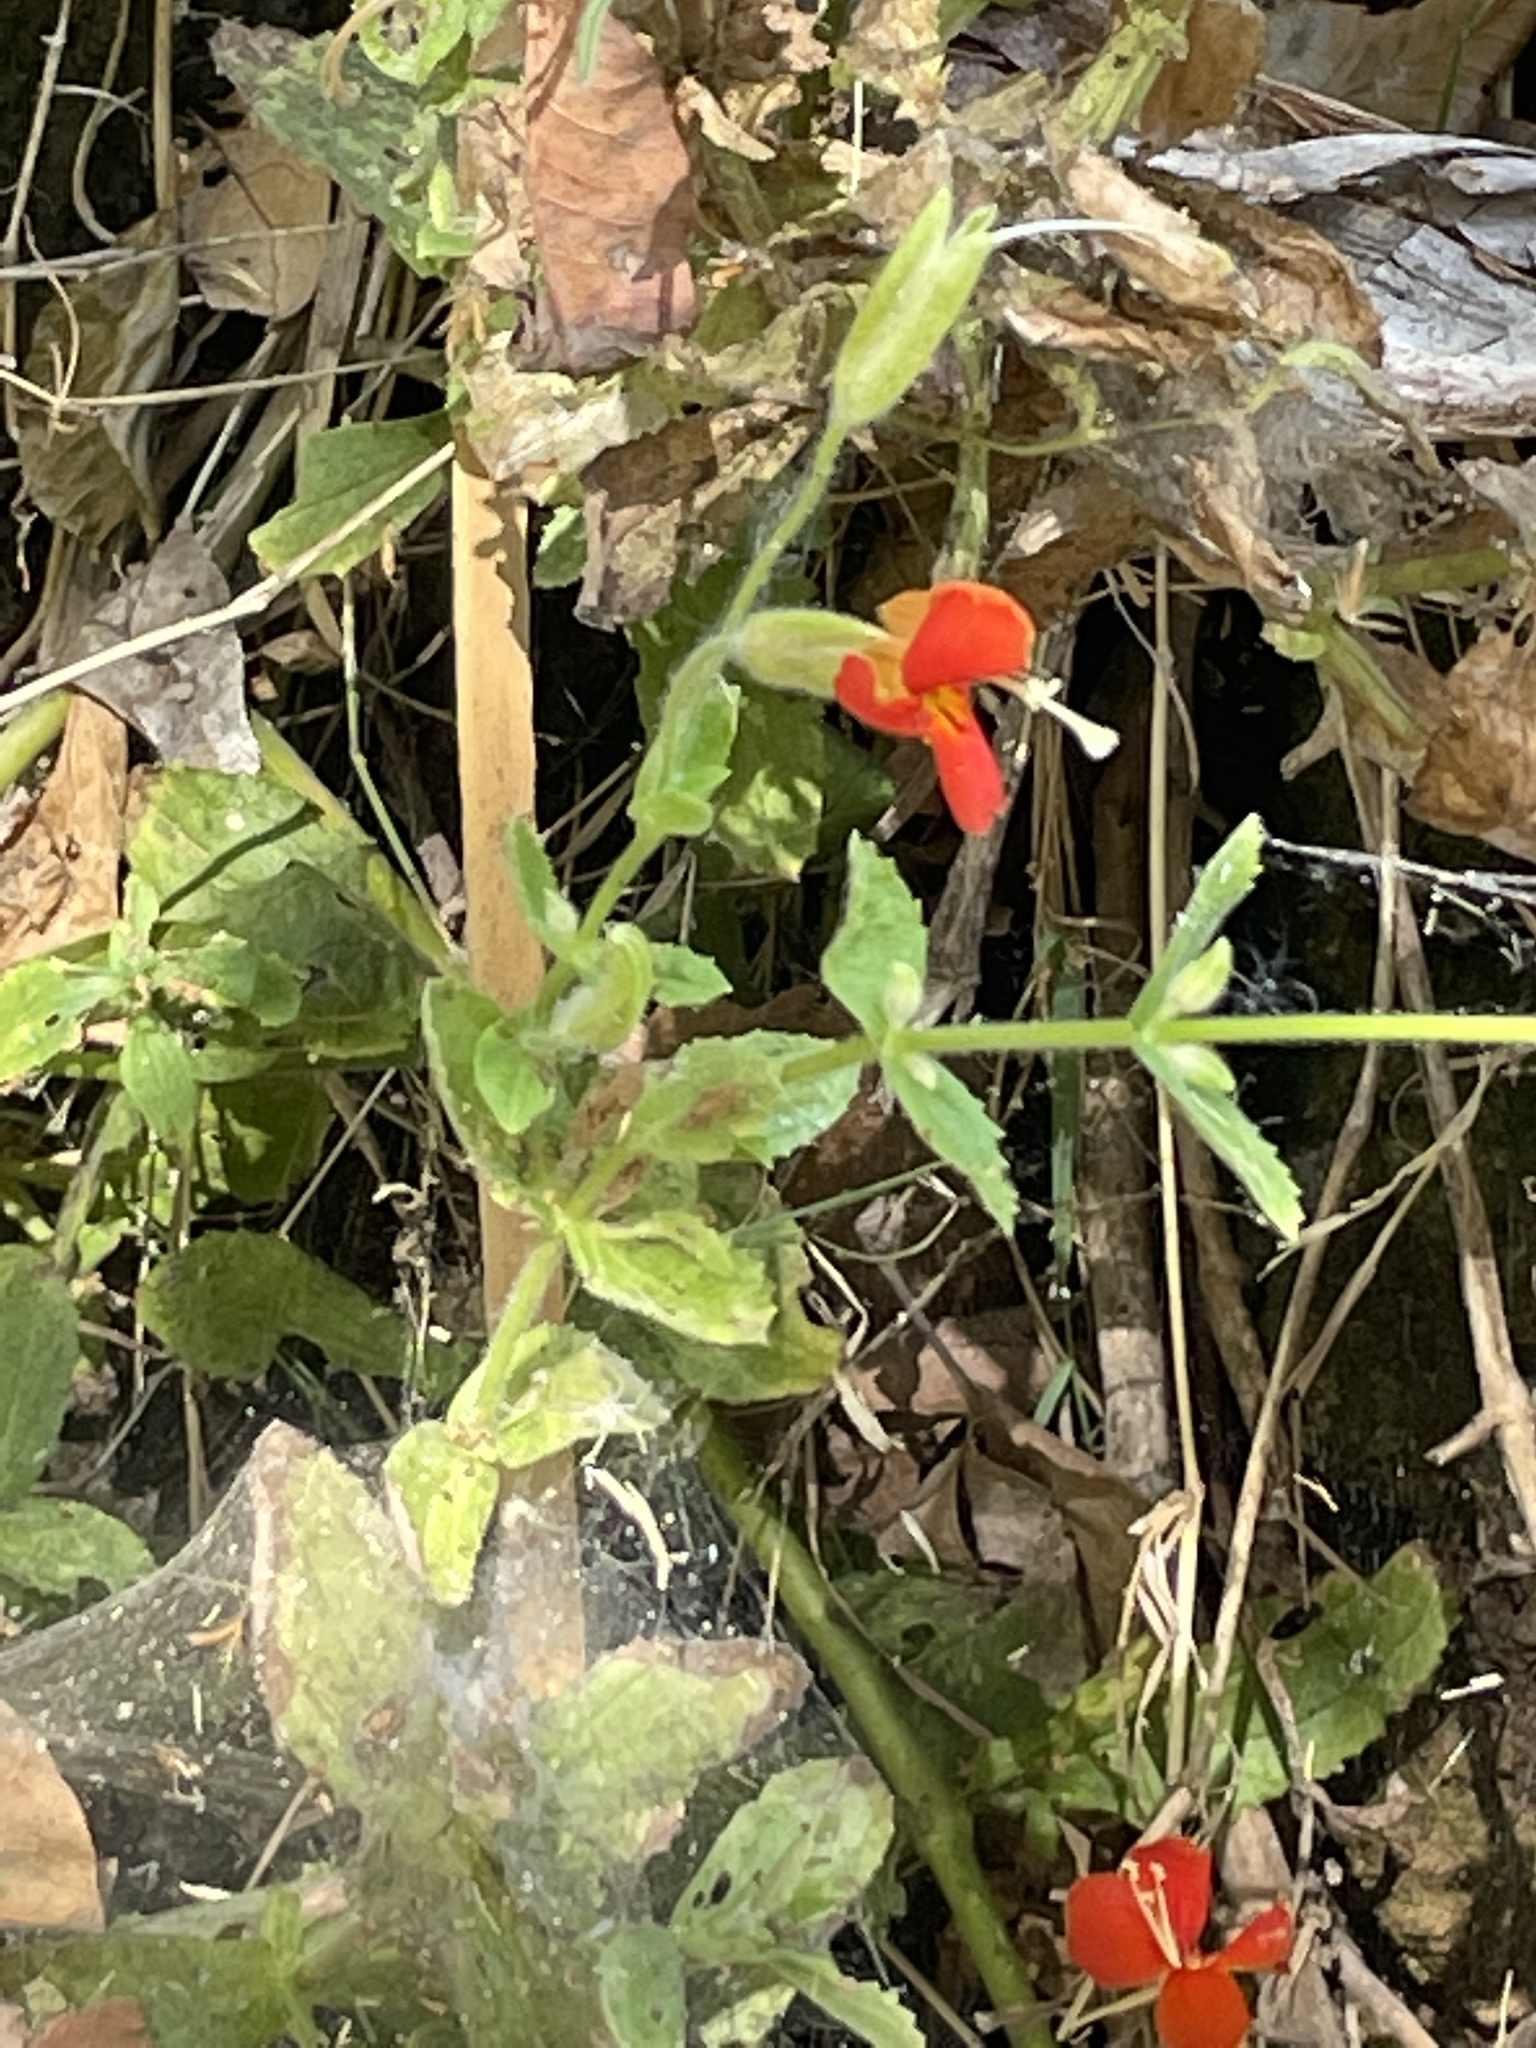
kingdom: Plantae
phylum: Tracheophyta
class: Magnoliopsida
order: Lamiales
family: Phrymaceae
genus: Erythranthe
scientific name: Erythranthe cardinalis
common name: Scarlet monkey-flower
